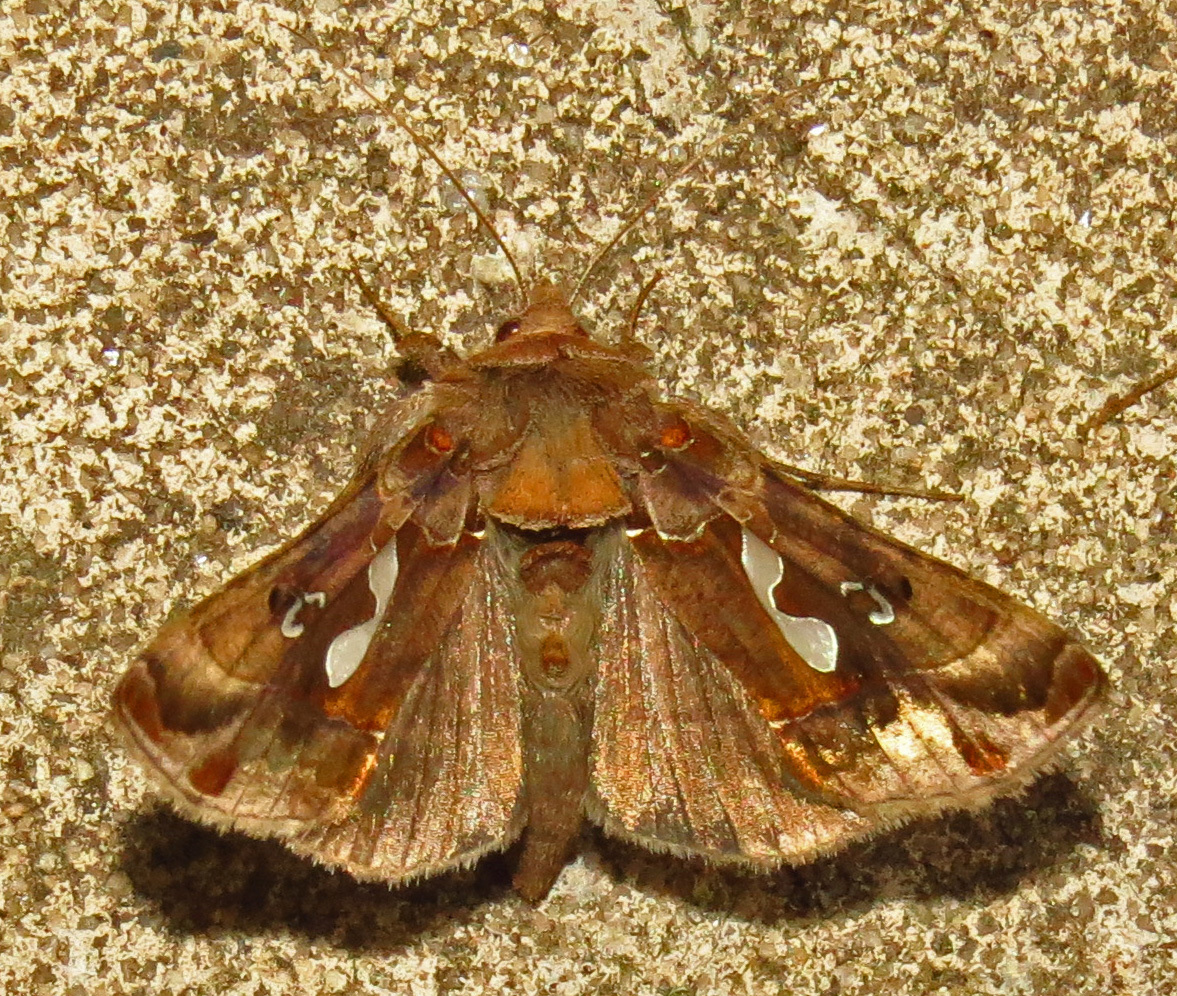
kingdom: Animalia
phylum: Arthropoda
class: Insecta
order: Lepidoptera
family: Noctuidae
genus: Megalographa
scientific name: Megalographa biloba
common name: Cutworm
